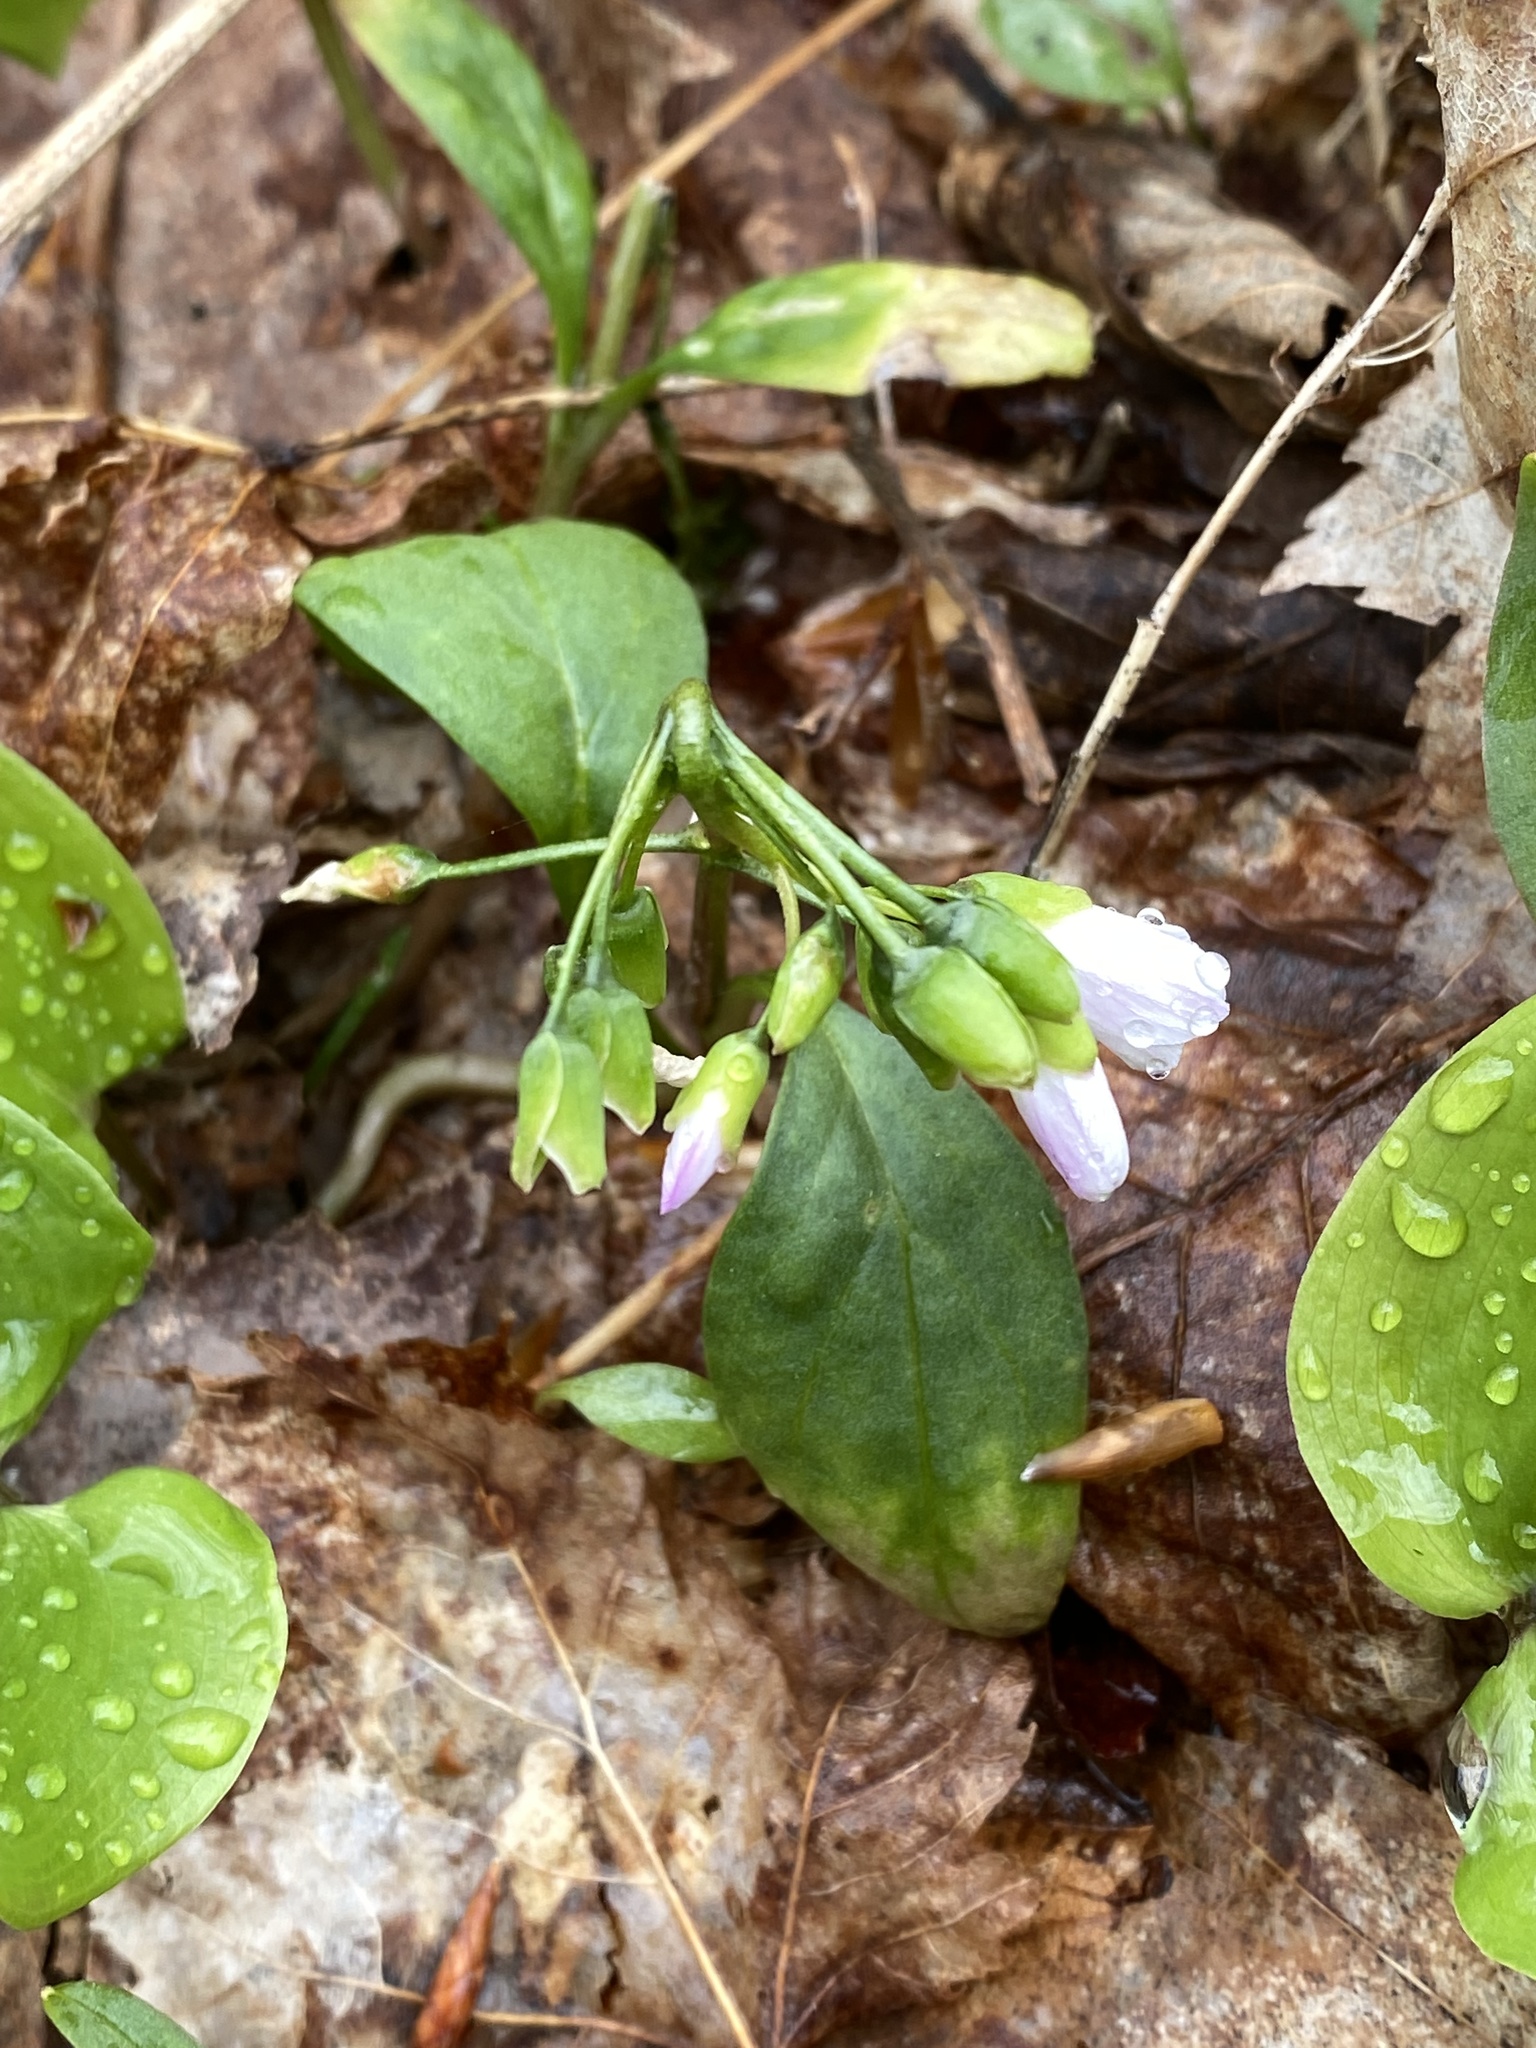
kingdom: Plantae
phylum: Tracheophyta
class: Magnoliopsida
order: Caryophyllales
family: Montiaceae
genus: Claytonia
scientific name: Claytonia caroliniana
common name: Carolina spring beauty
